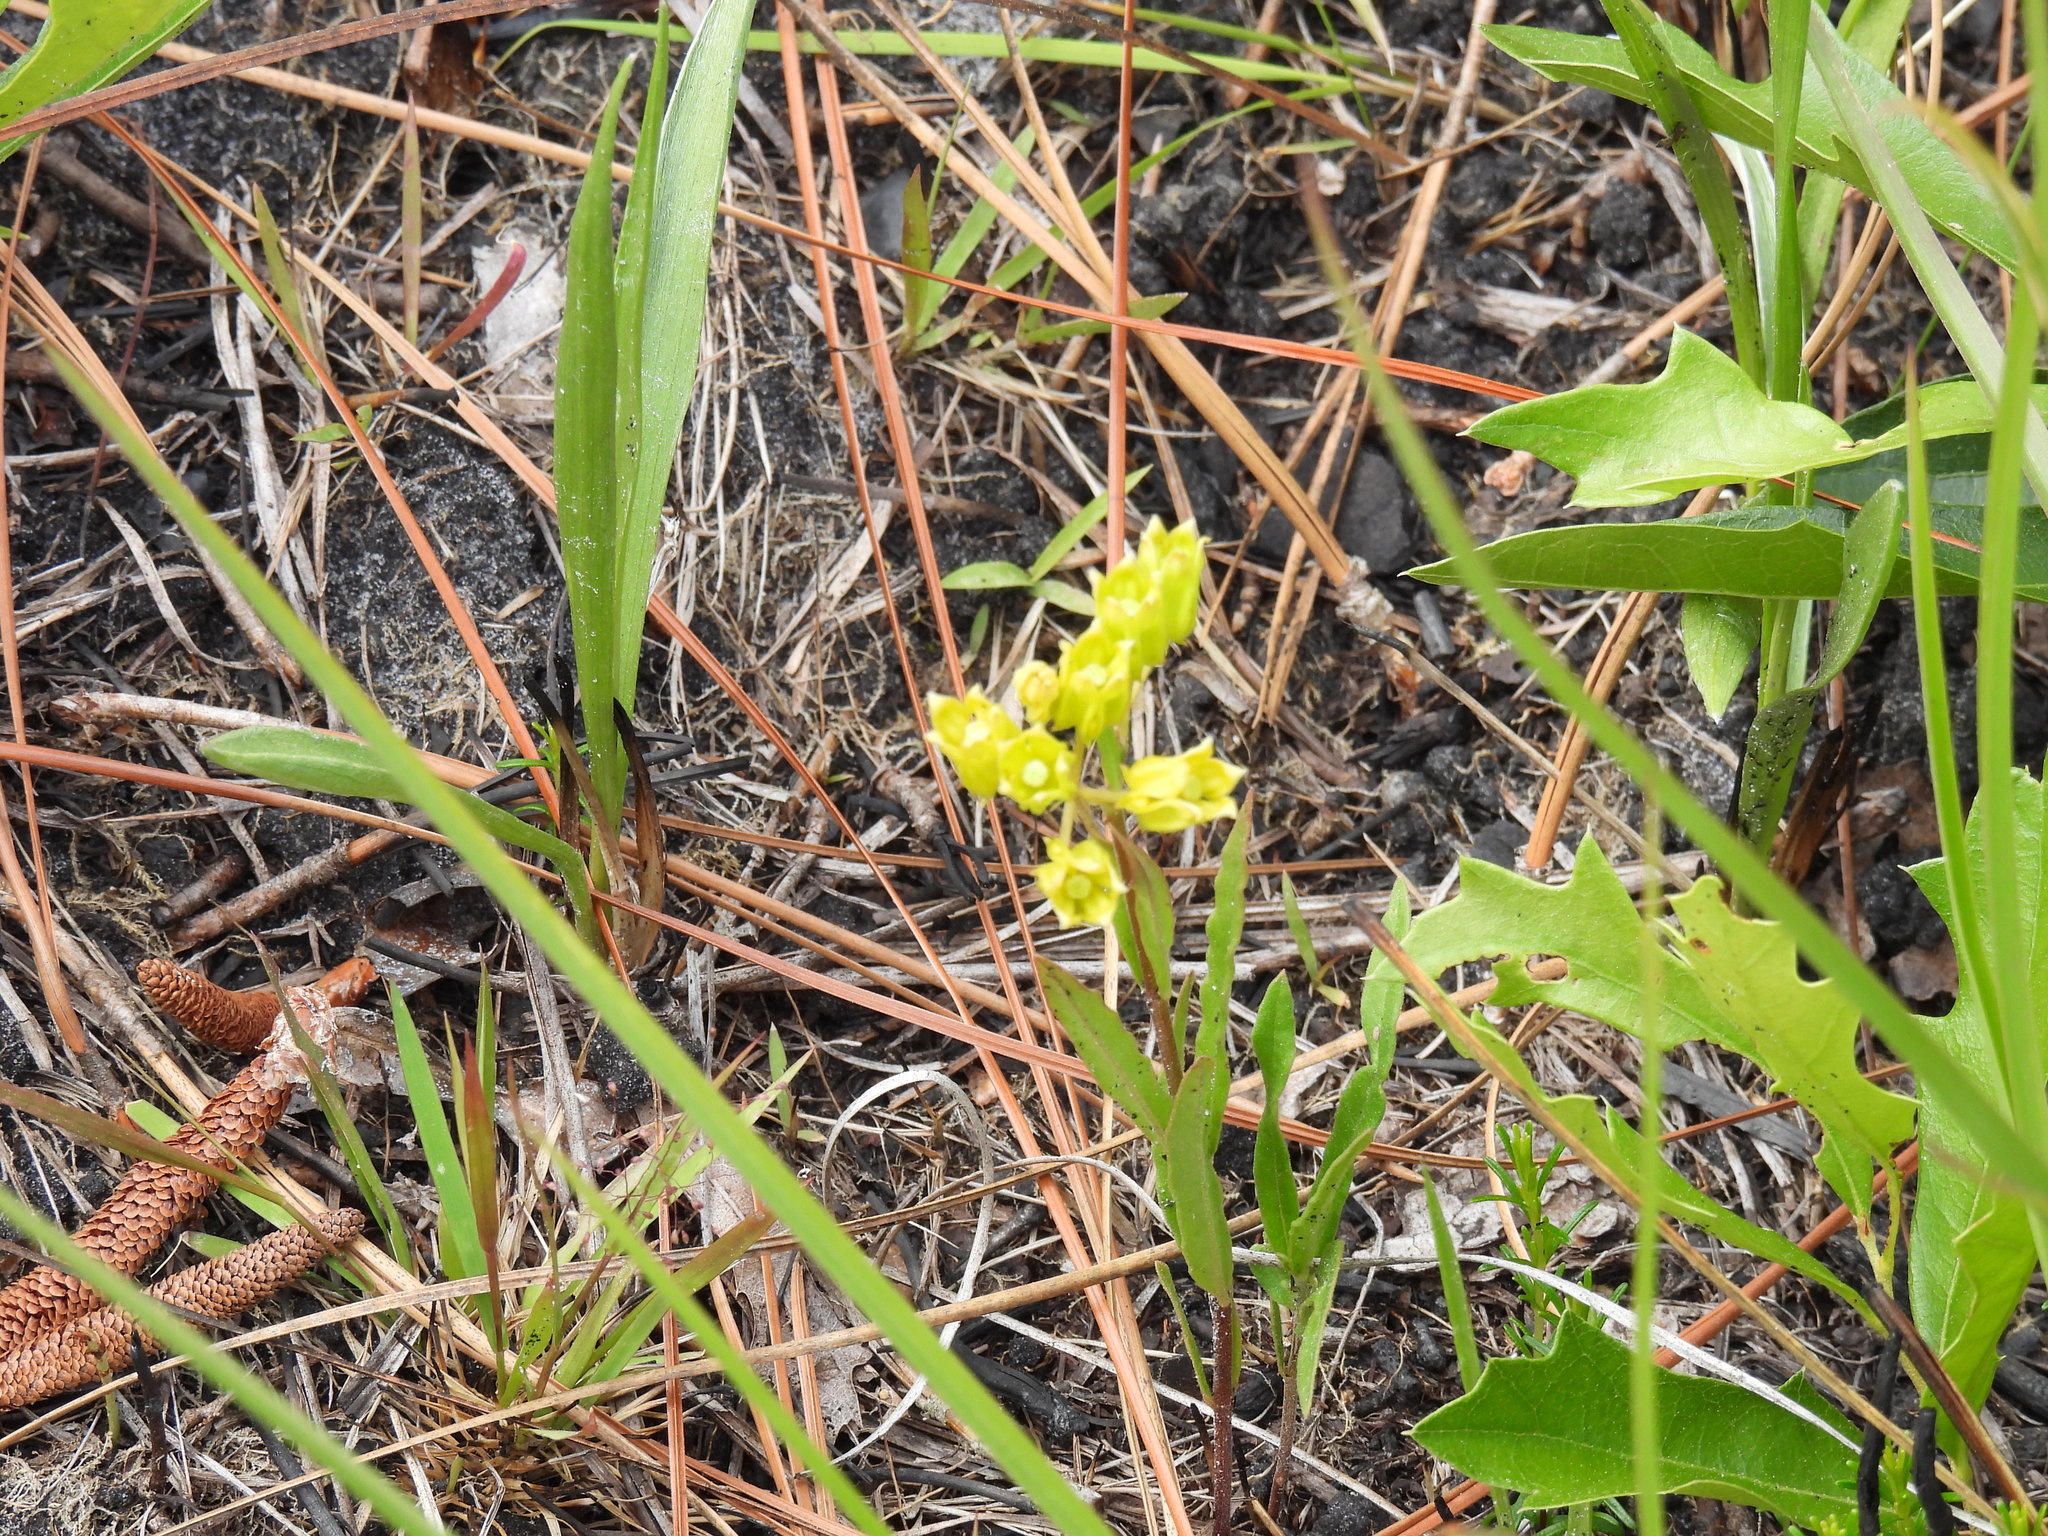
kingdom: Plantae
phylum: Tracheophyta
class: Magnoliopsida
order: Gentianales
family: Apocynaceae
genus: Asclepias
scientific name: Asclepias pedicellata
